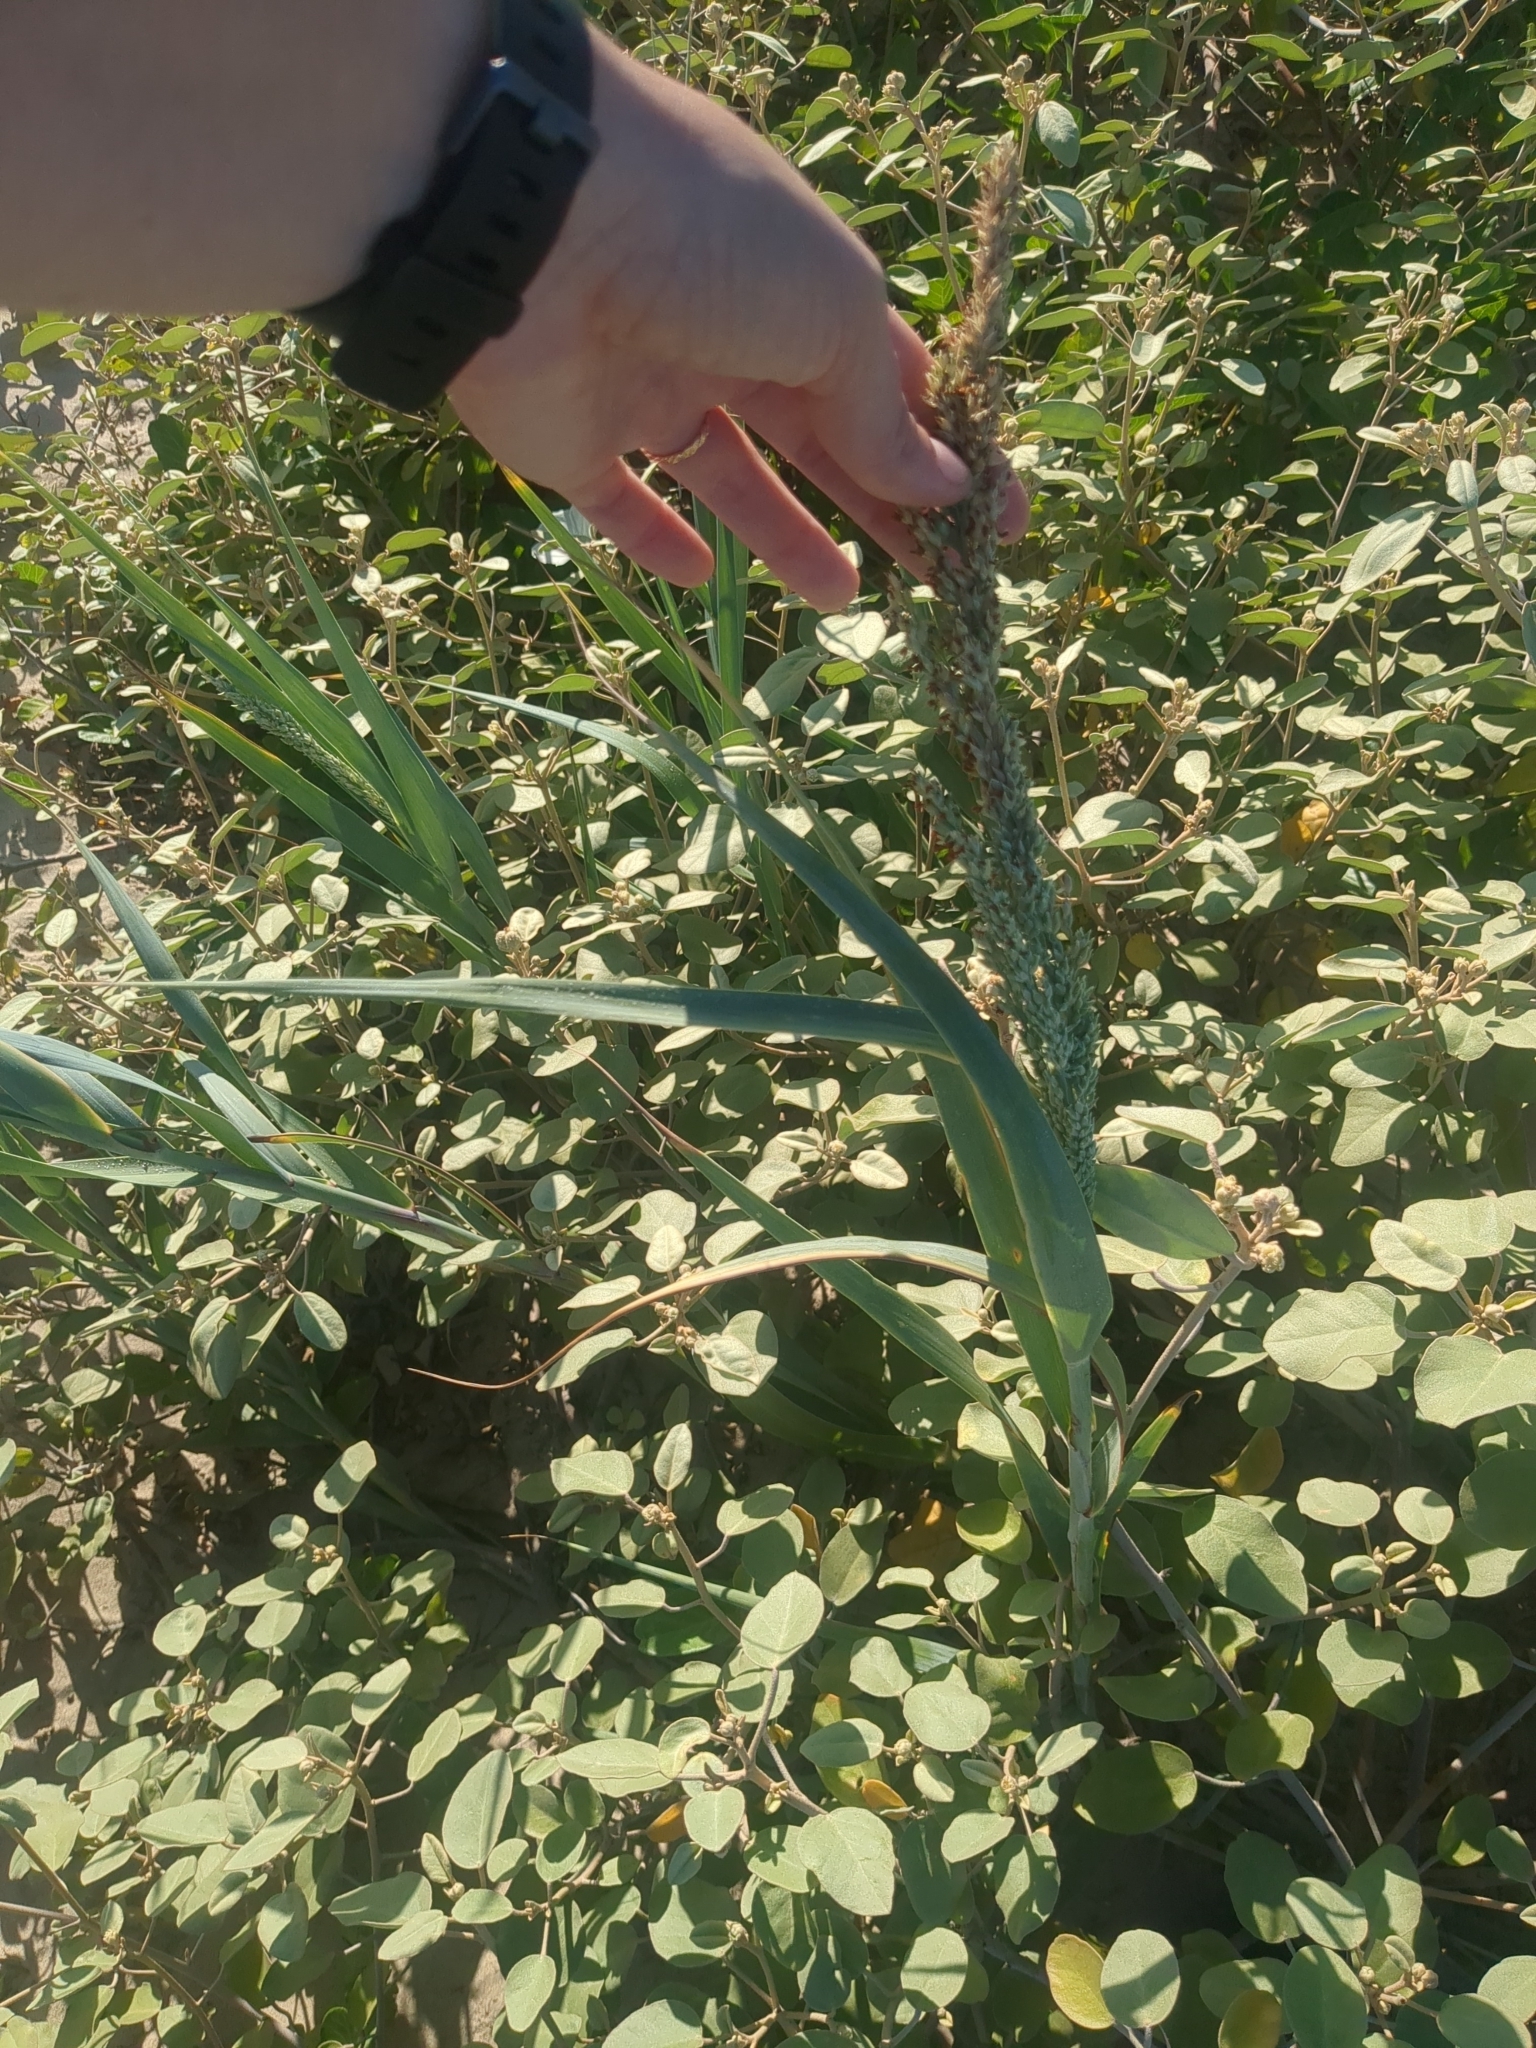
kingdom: Plantae
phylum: Tracheophyta
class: Liliopsida
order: Poales
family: Poaceae
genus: Panicum
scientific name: Panicum amarum
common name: Bitter panicum
